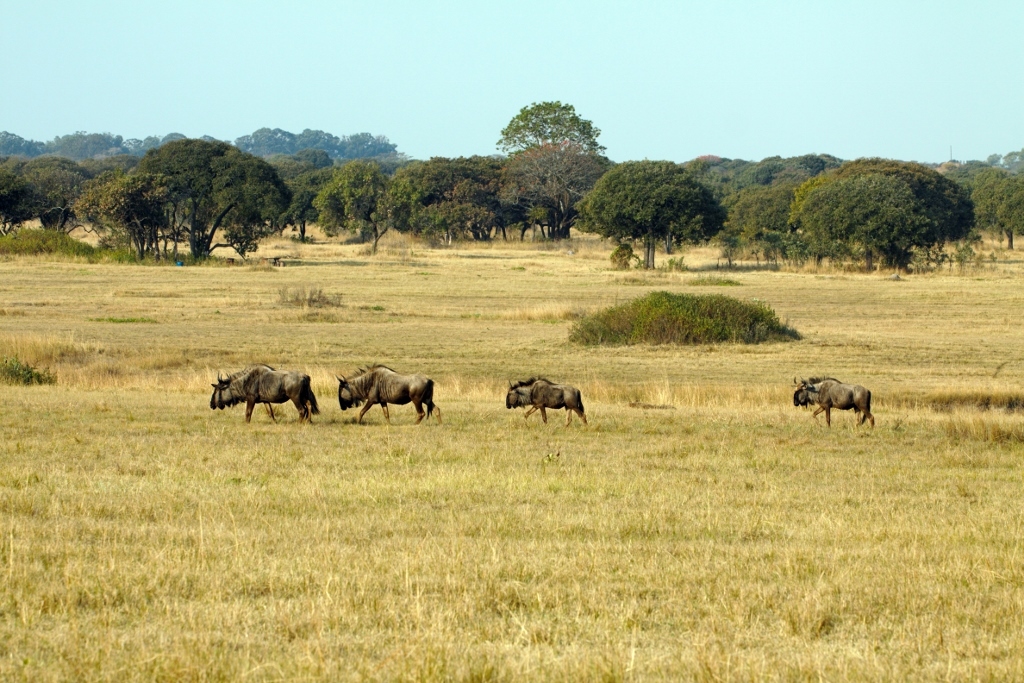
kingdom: Animalia
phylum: Chordata
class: Mammalia
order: Artiodactyla
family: Bovidae
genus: Connochaetes
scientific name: Connochaetes taurinus
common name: Blue wildebeest
